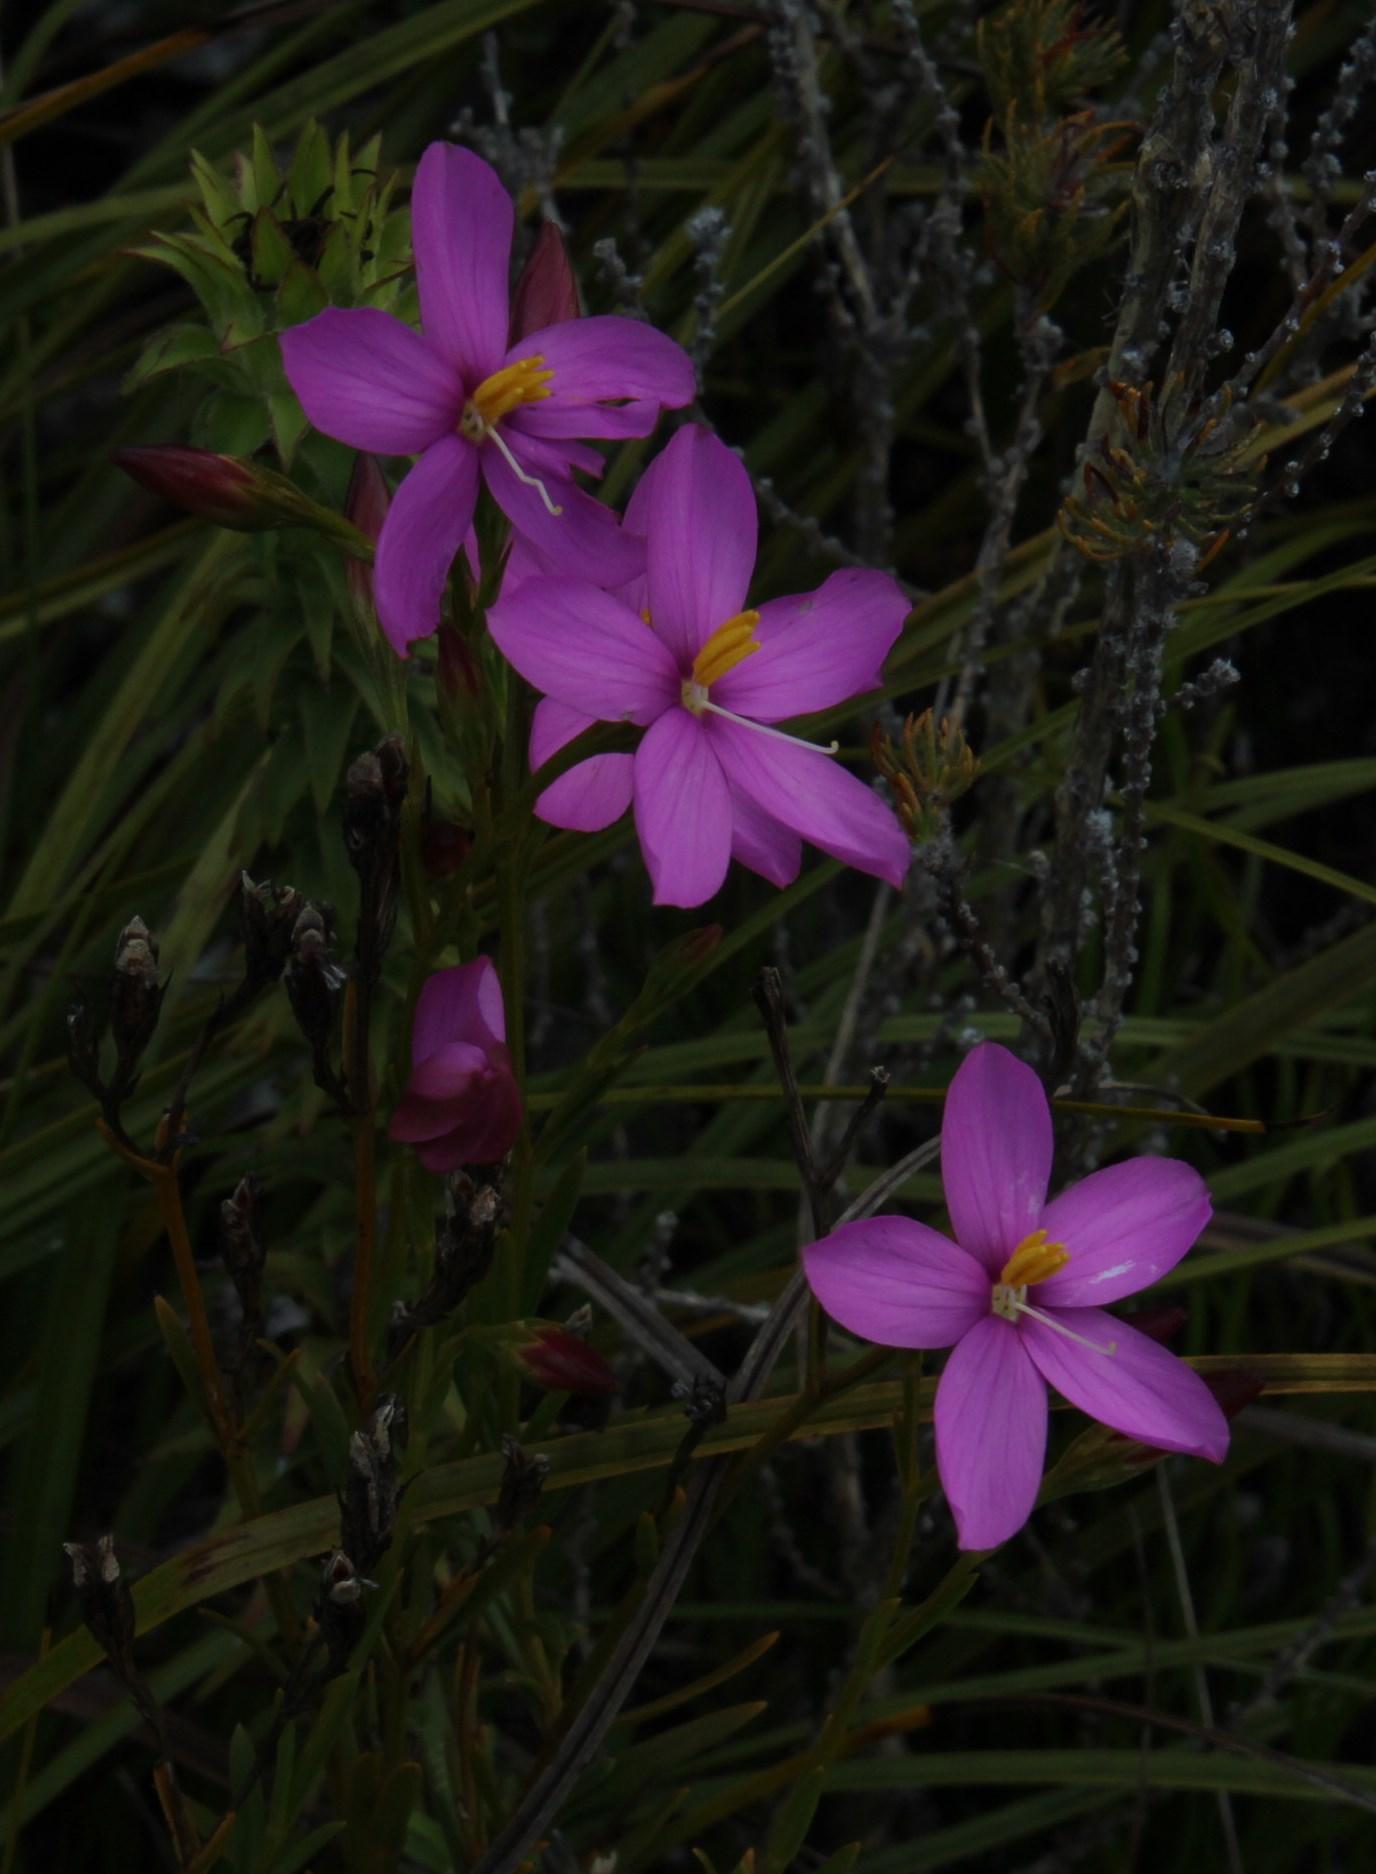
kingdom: Plantae
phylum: Tracheophyta
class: Magnoliopsida
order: Gentianales
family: Gentianaceae
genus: Chironia
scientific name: Chironia tetragona
